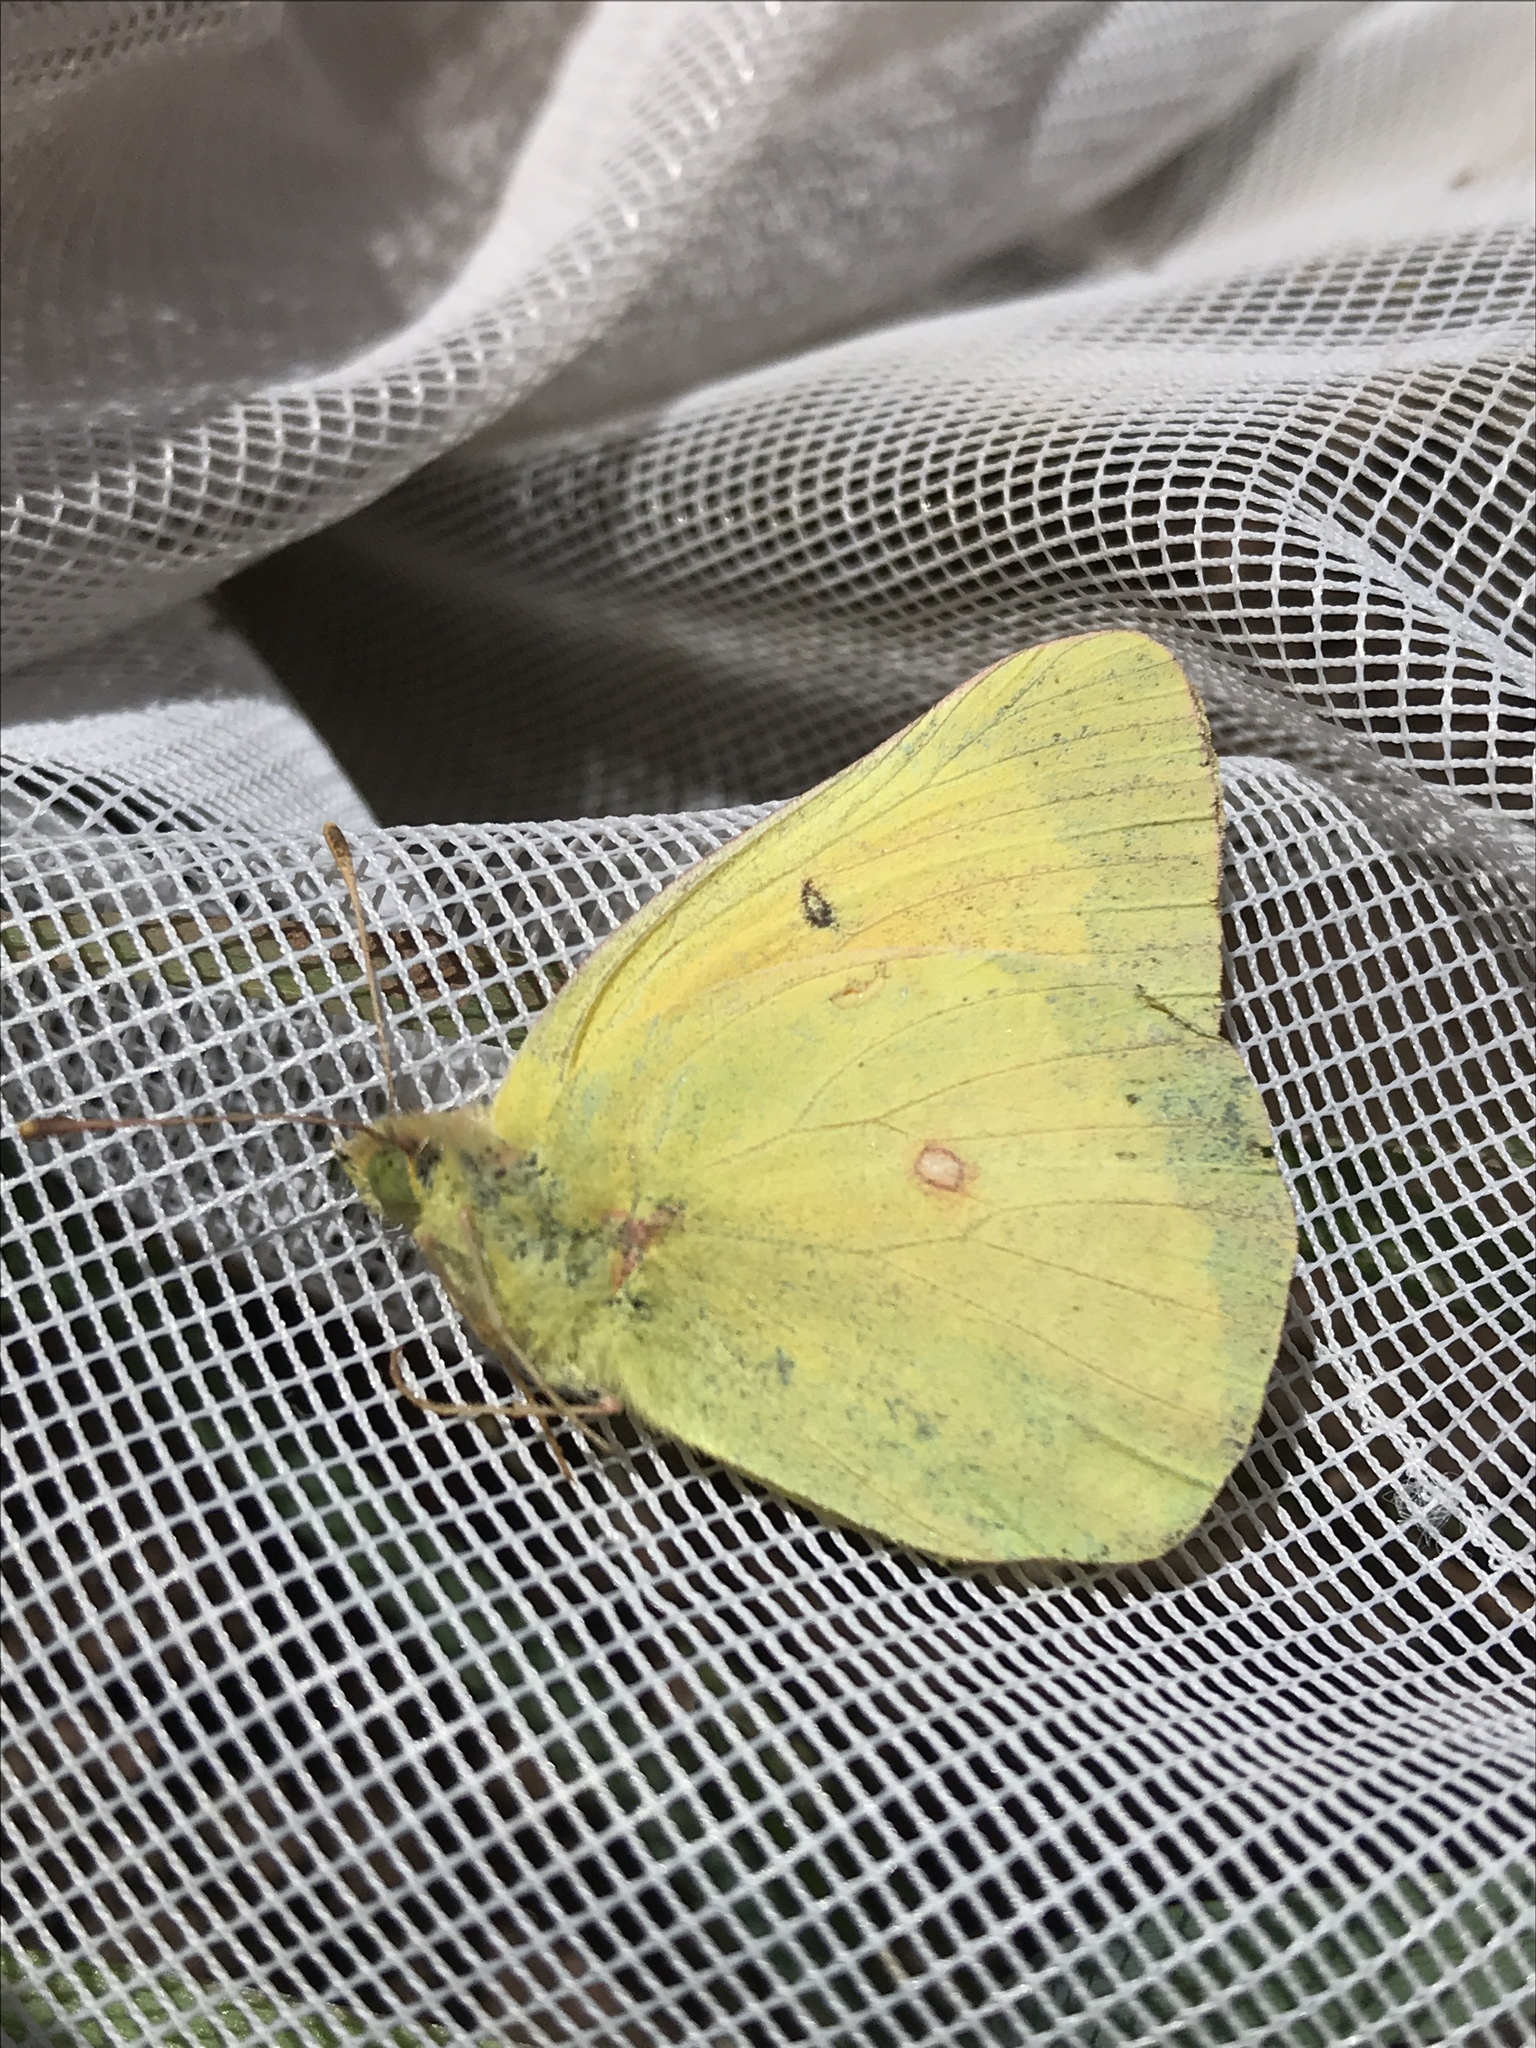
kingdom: Animalia
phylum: Arthropoda
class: Insecta
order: Lepidoptera
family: Pieridae
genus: Colias
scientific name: Colias eurytheme
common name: Alfalfa butterfly
